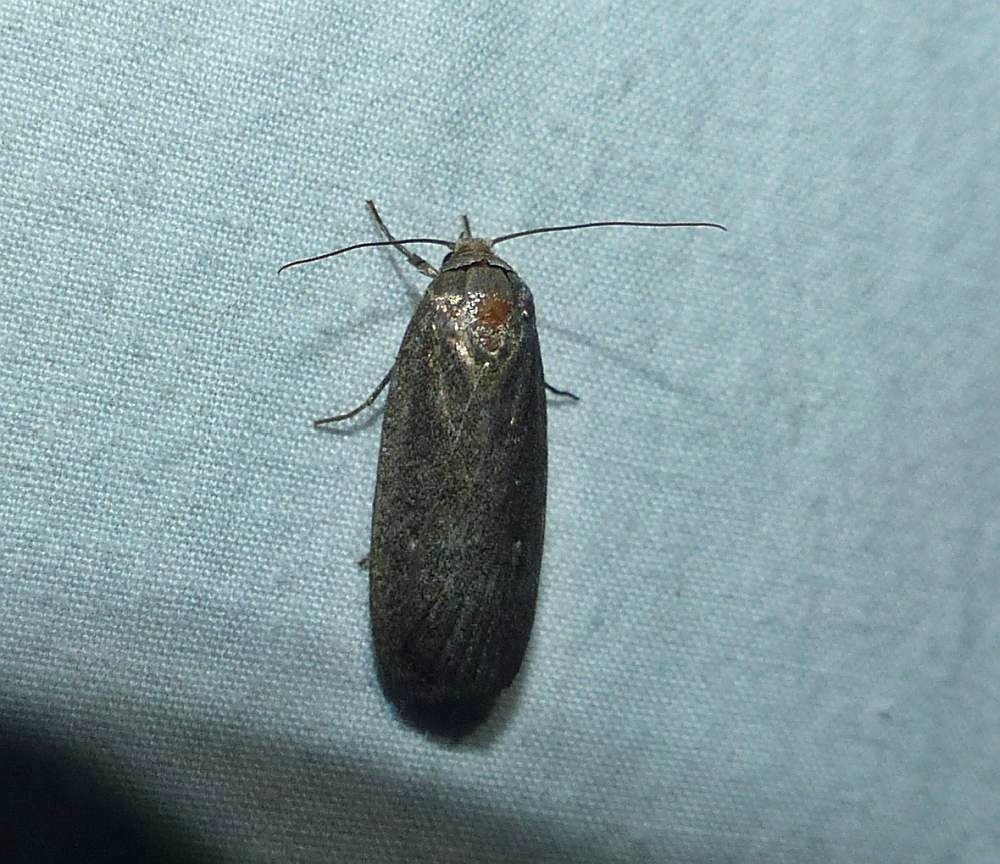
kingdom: Animalia
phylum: Arthropoda
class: Insecta
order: Lepidoptera
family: Noctuidae
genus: Proxenus
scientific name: Proxenus miranda
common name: Miranda moth
